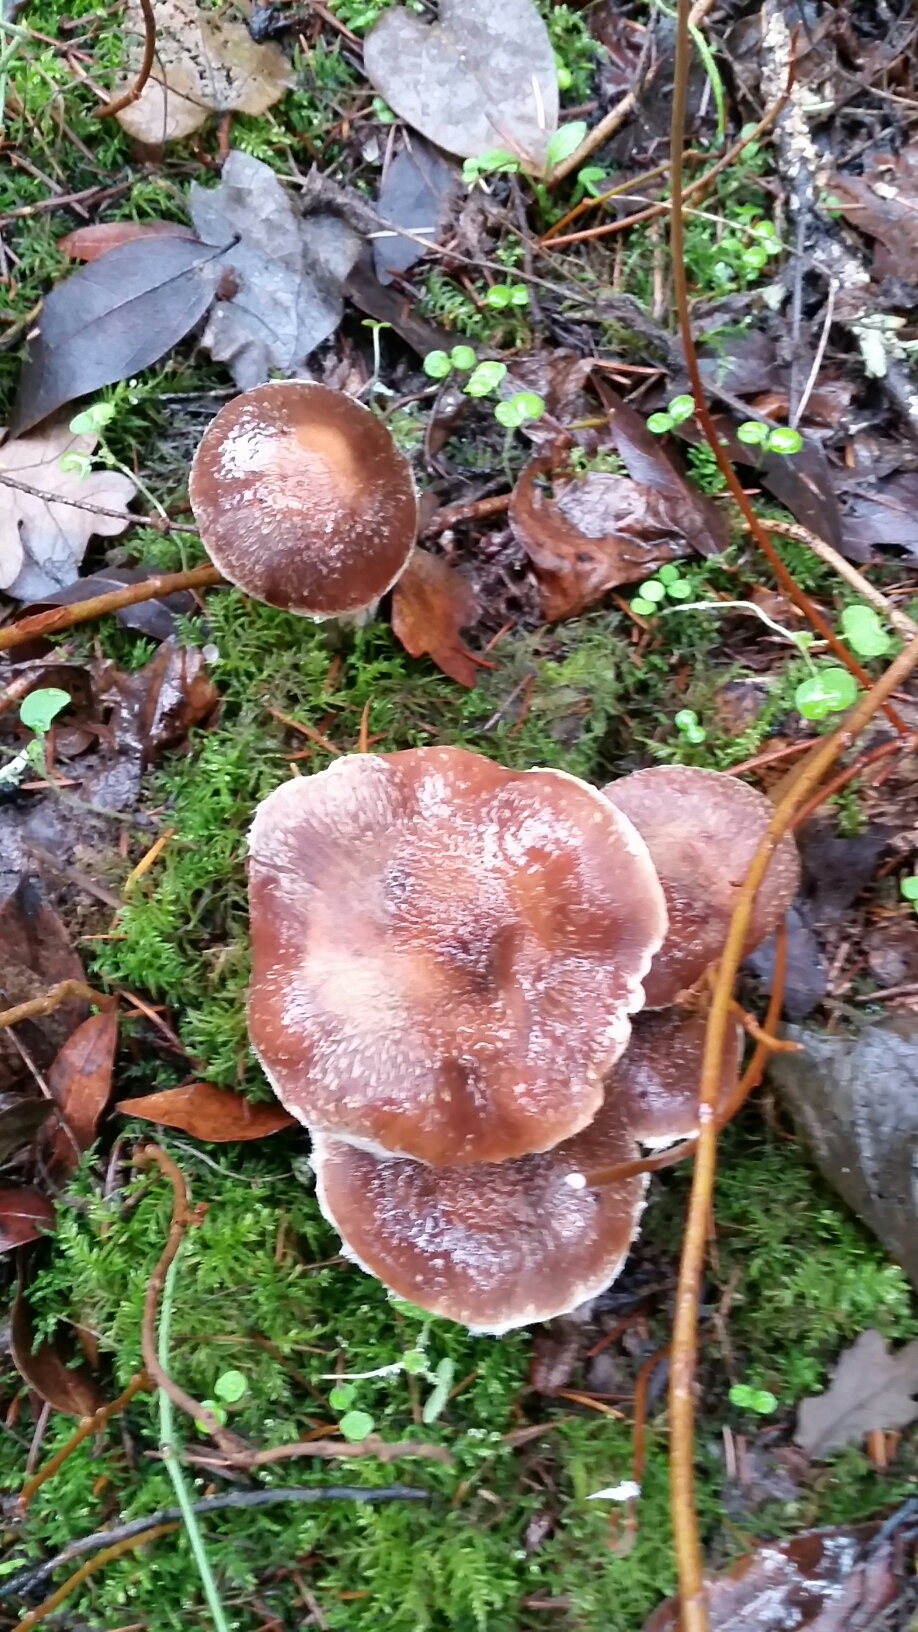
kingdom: Fungi
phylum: Basidiomycota
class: Agaricomycetes
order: Agaricales
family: Physalacriaceae
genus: Armillaria
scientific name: Armillaria sinapina
